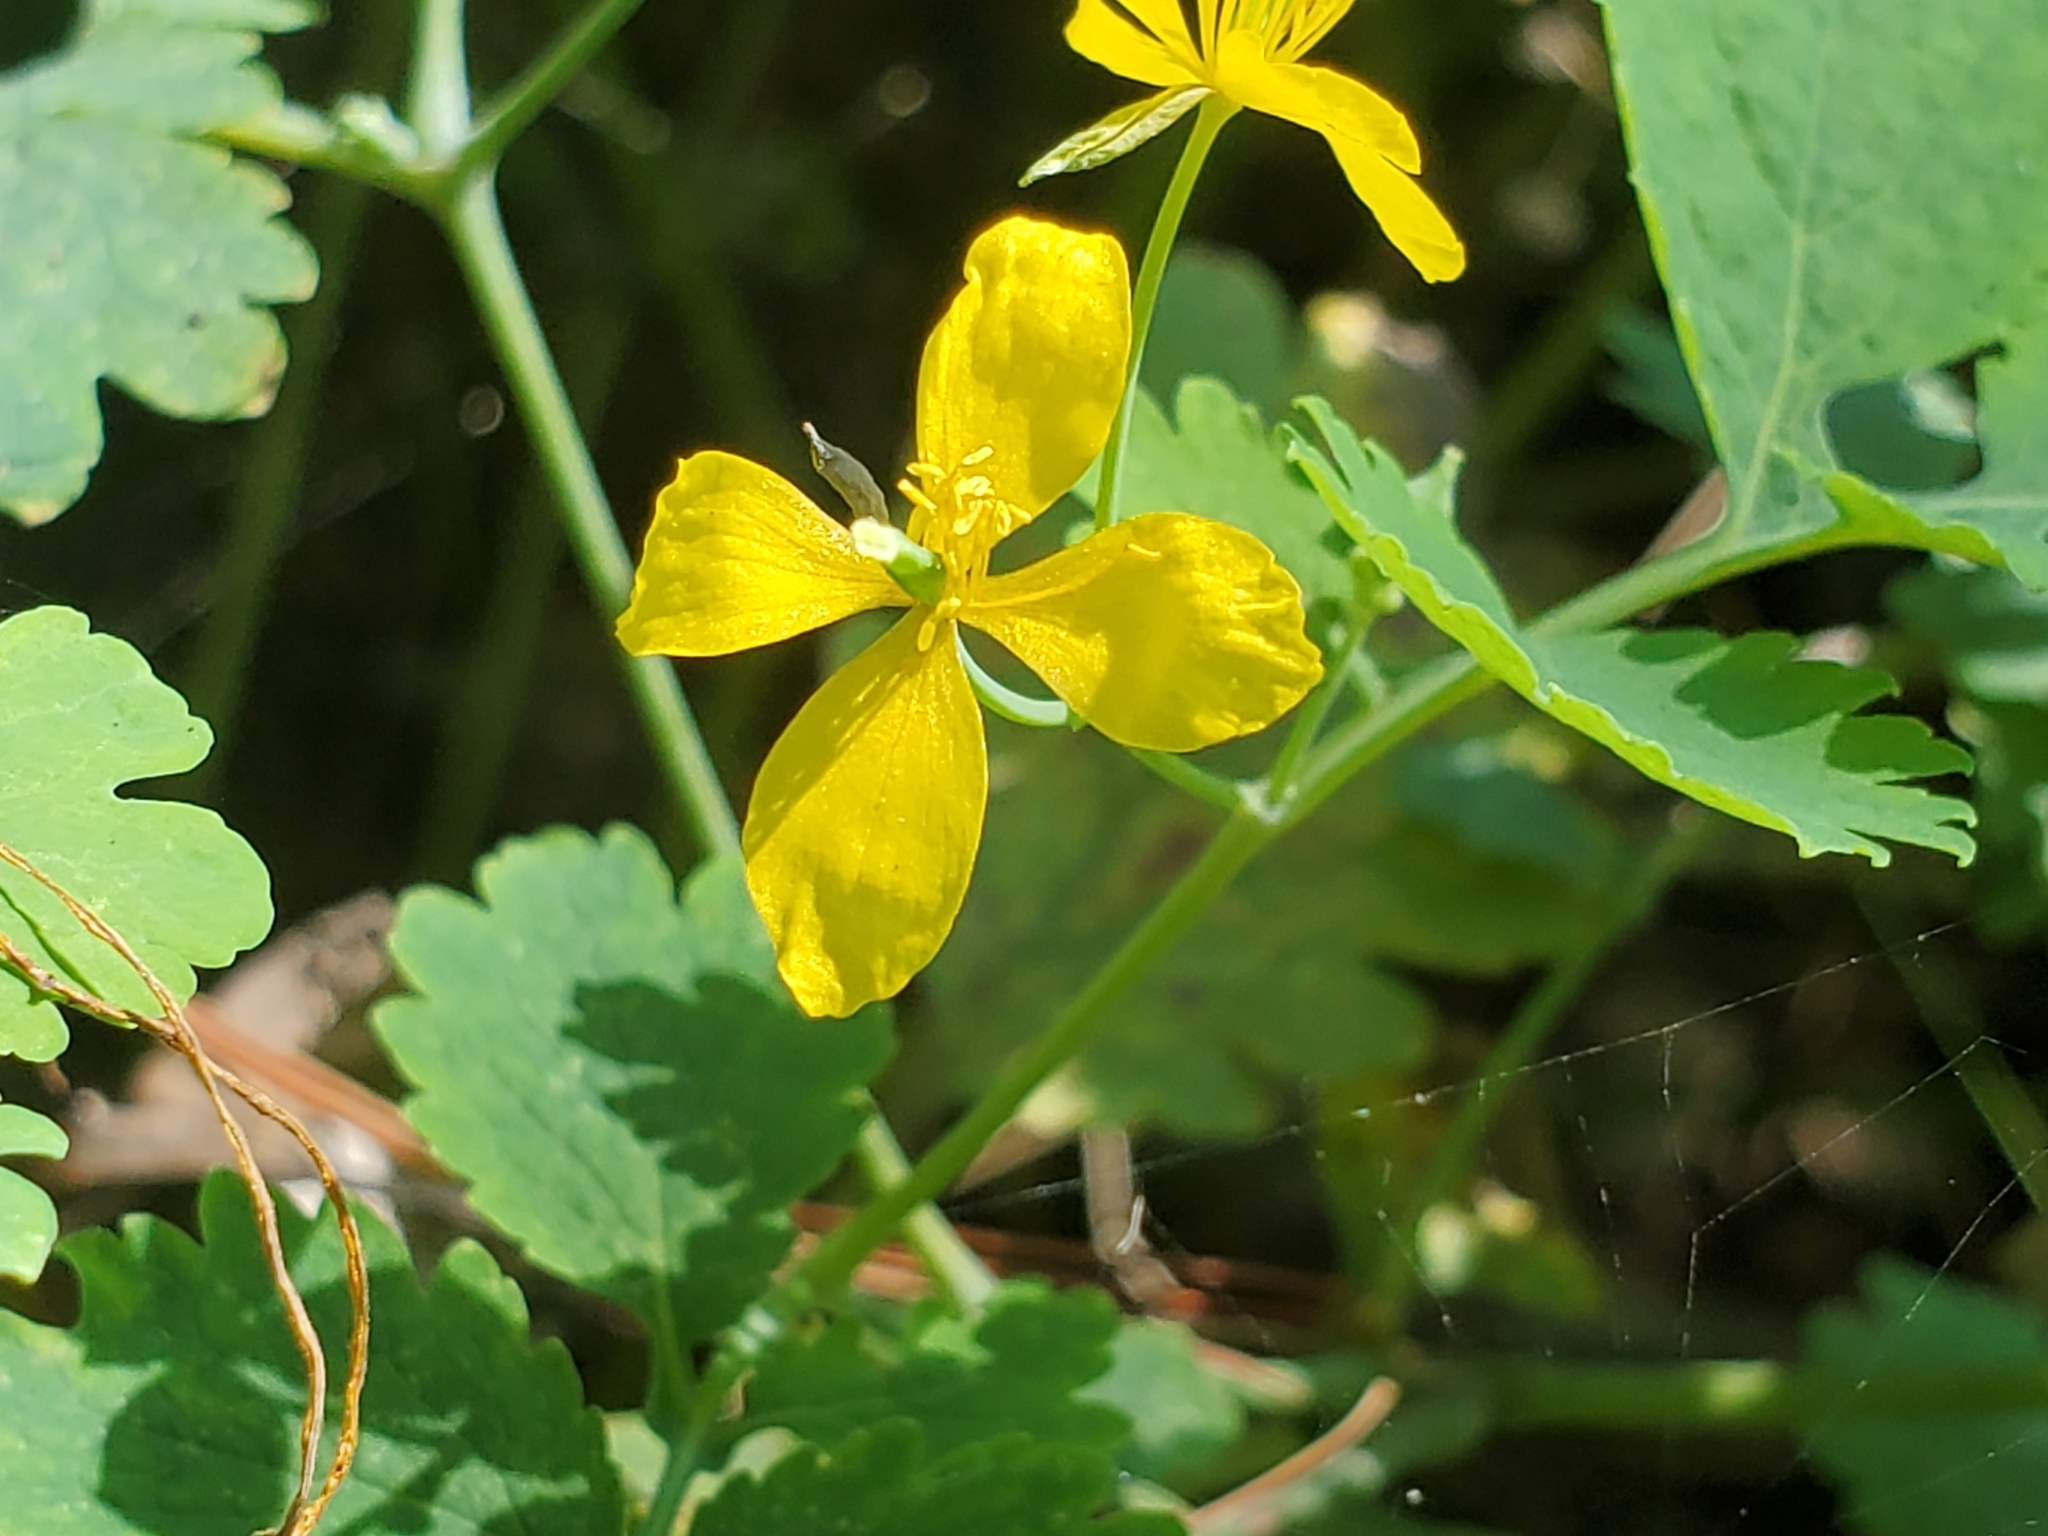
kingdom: Plantae
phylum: Tracheophyta
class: Magnoliopsida
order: Ranunculales
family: Papaveraceae
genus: Chelidonium
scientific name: Chelidonium majus
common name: Greater celandine
